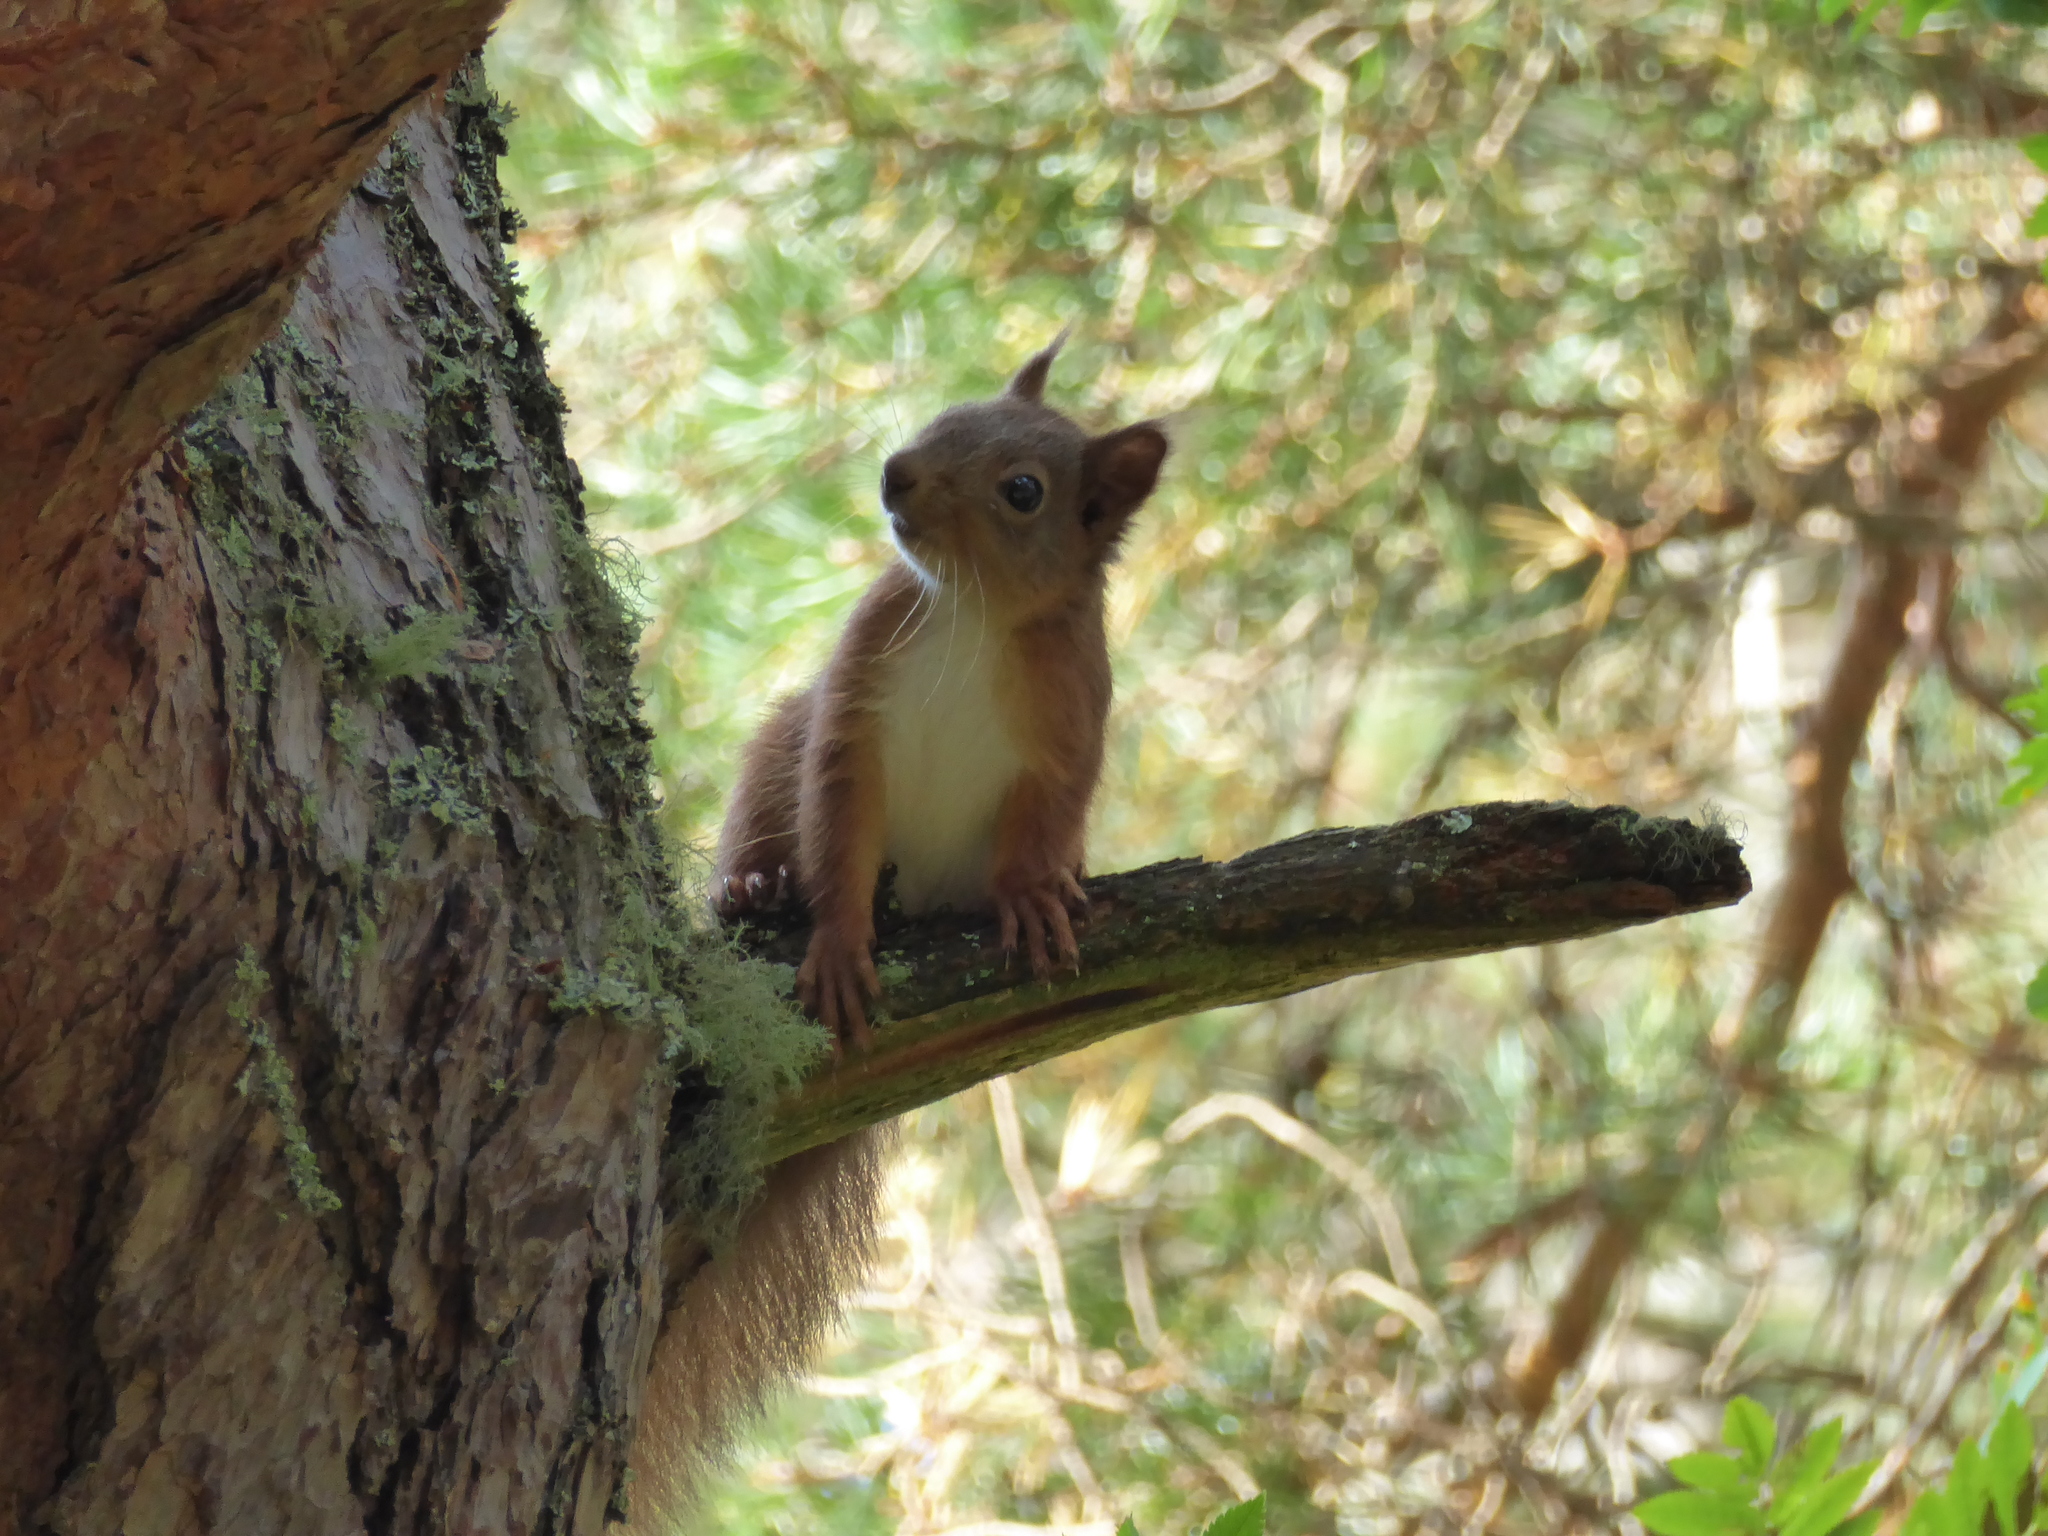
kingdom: Animalia
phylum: Chordata
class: Mammalia
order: Rodentia
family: Sciuridae
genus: Sciurus
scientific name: Sciurus vulgaris
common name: Eurasian red squirrel
